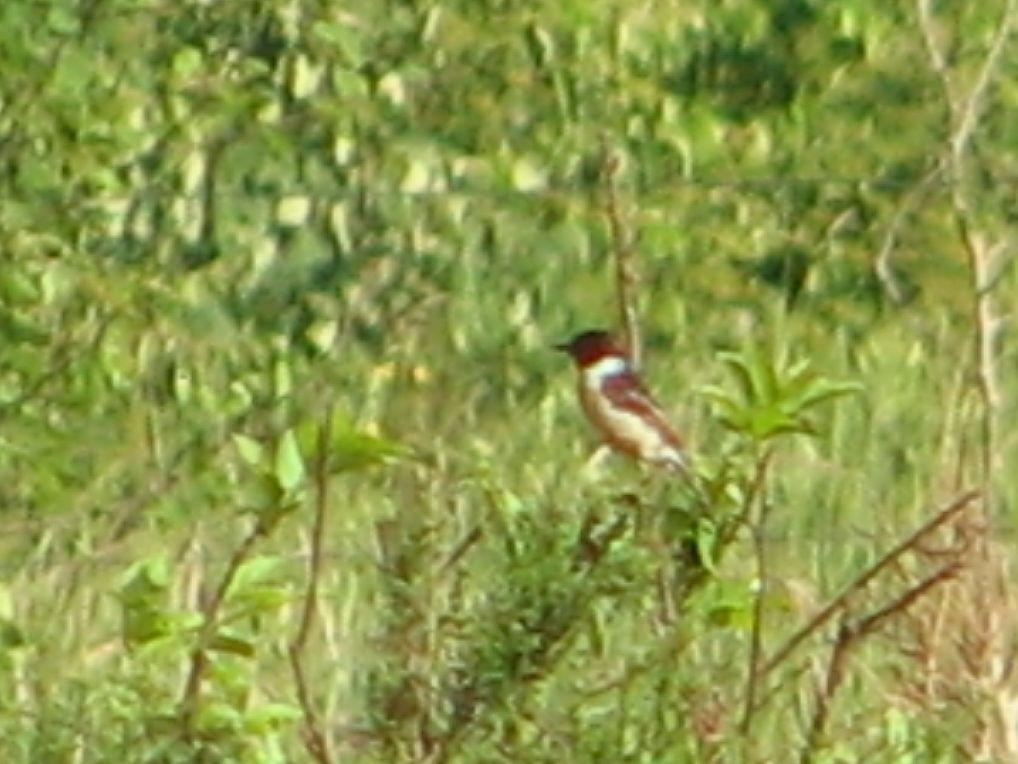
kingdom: Animalia
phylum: Chordata
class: Aves
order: Passeriformes
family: Muscicapidae
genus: Saxicola
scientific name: Saxicola rubicola
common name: European stonechat
